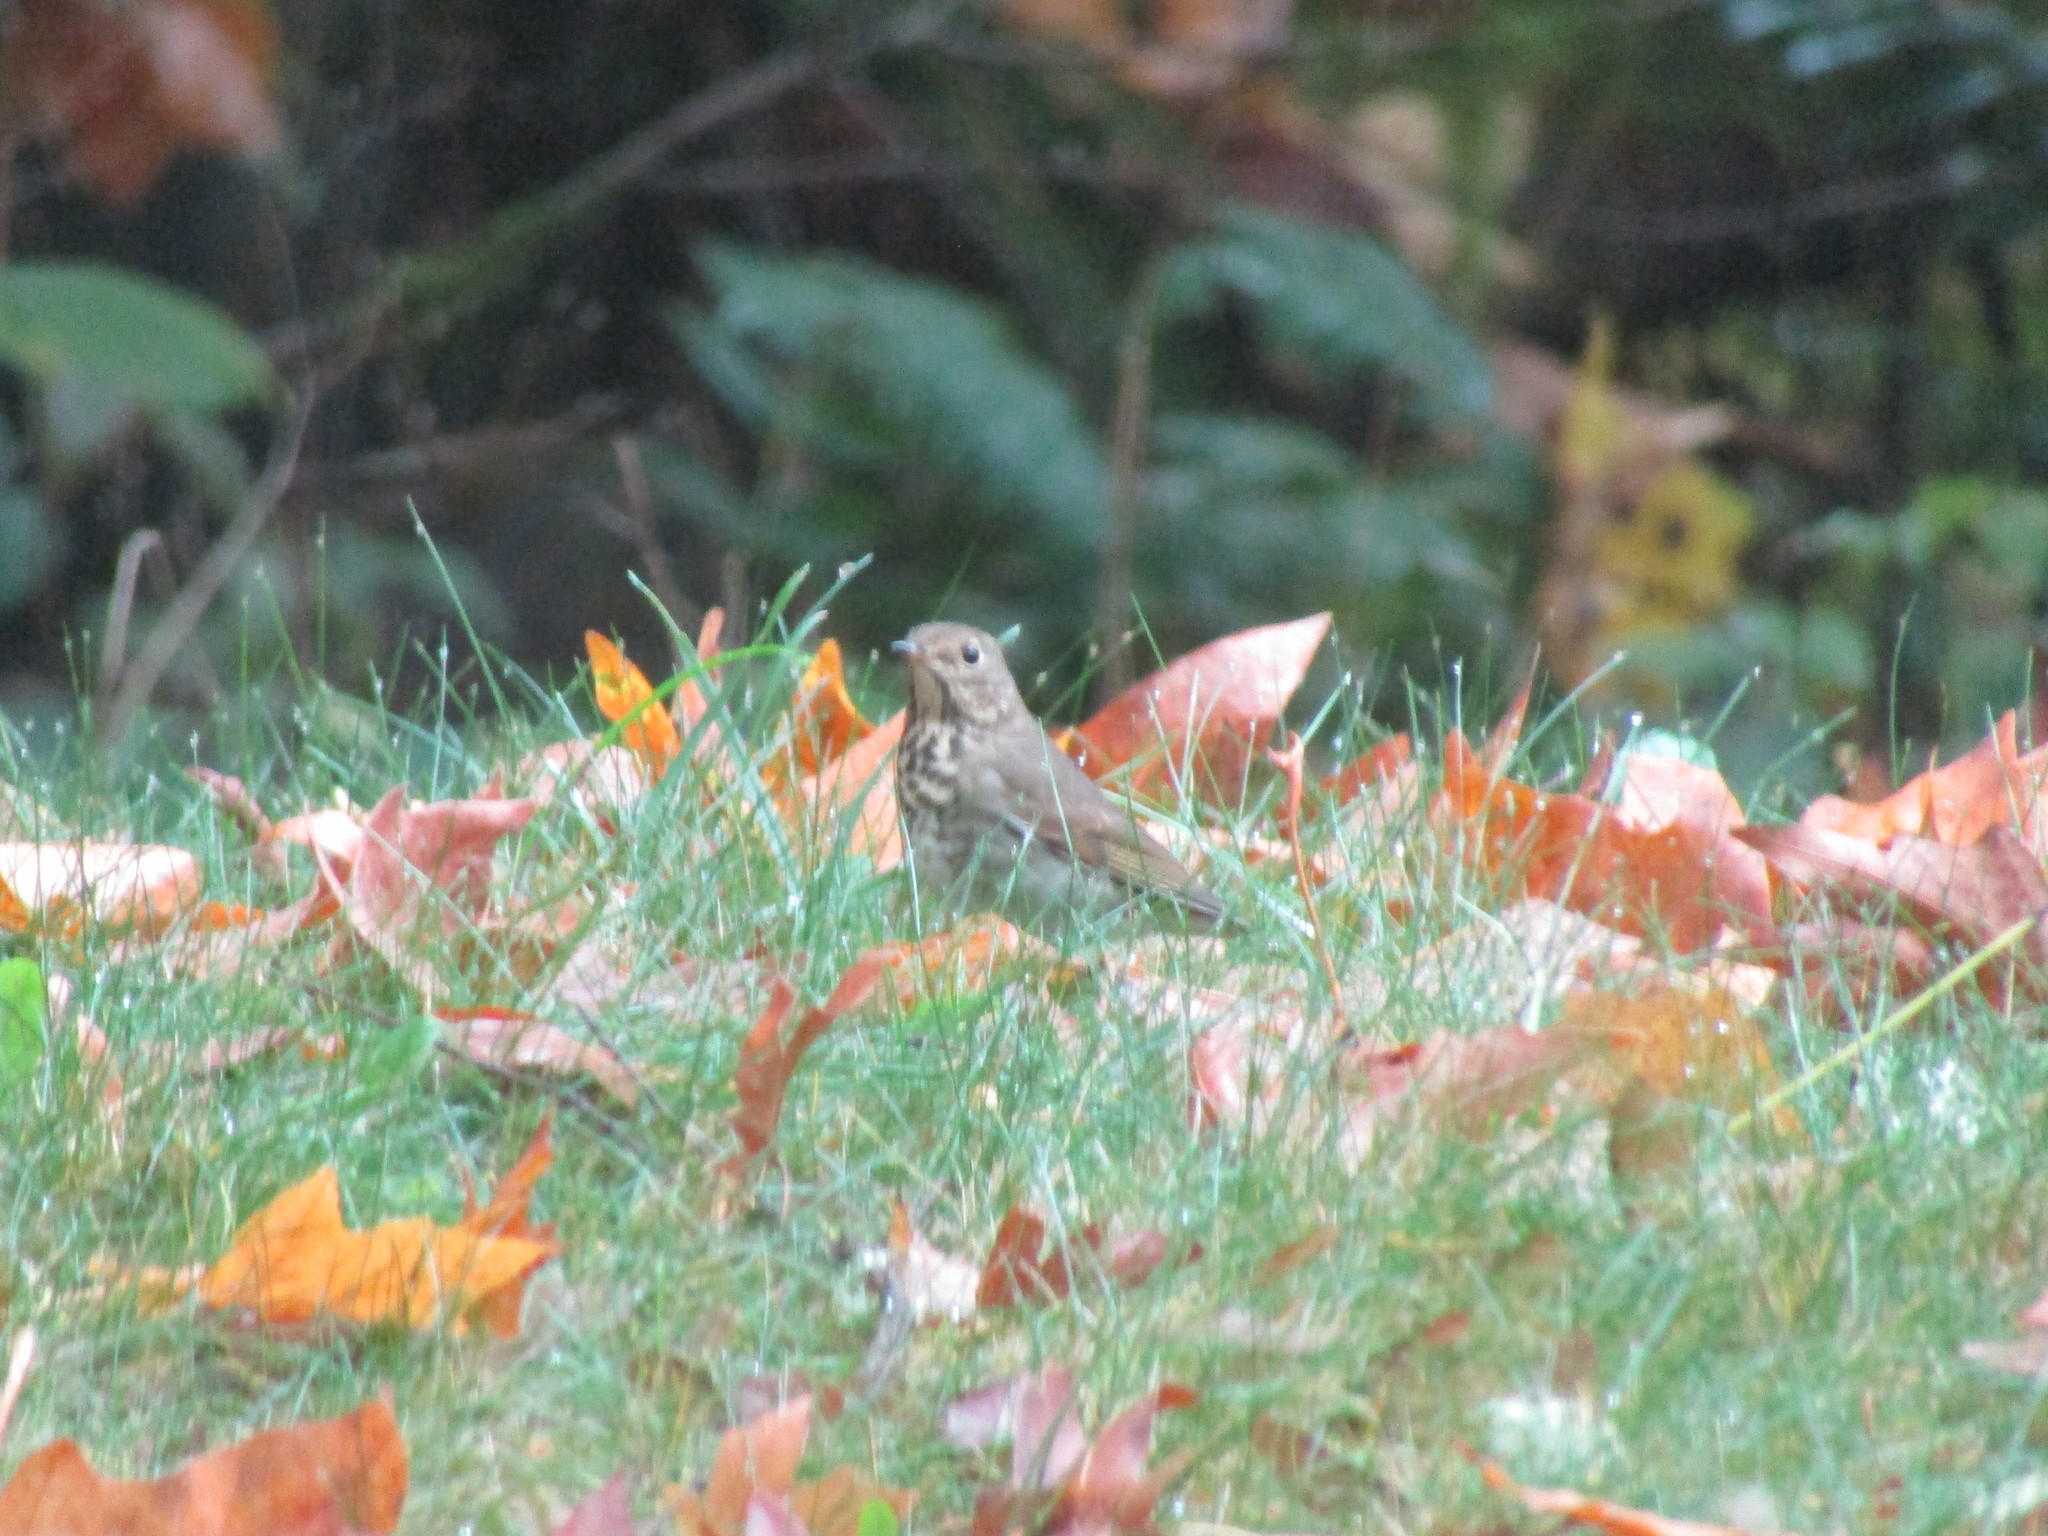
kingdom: Animalia
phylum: Chordata
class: Aves
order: Passeriformes
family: Turdidae
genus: Catharus
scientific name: Catharus guttatus
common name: Hermit thrush
